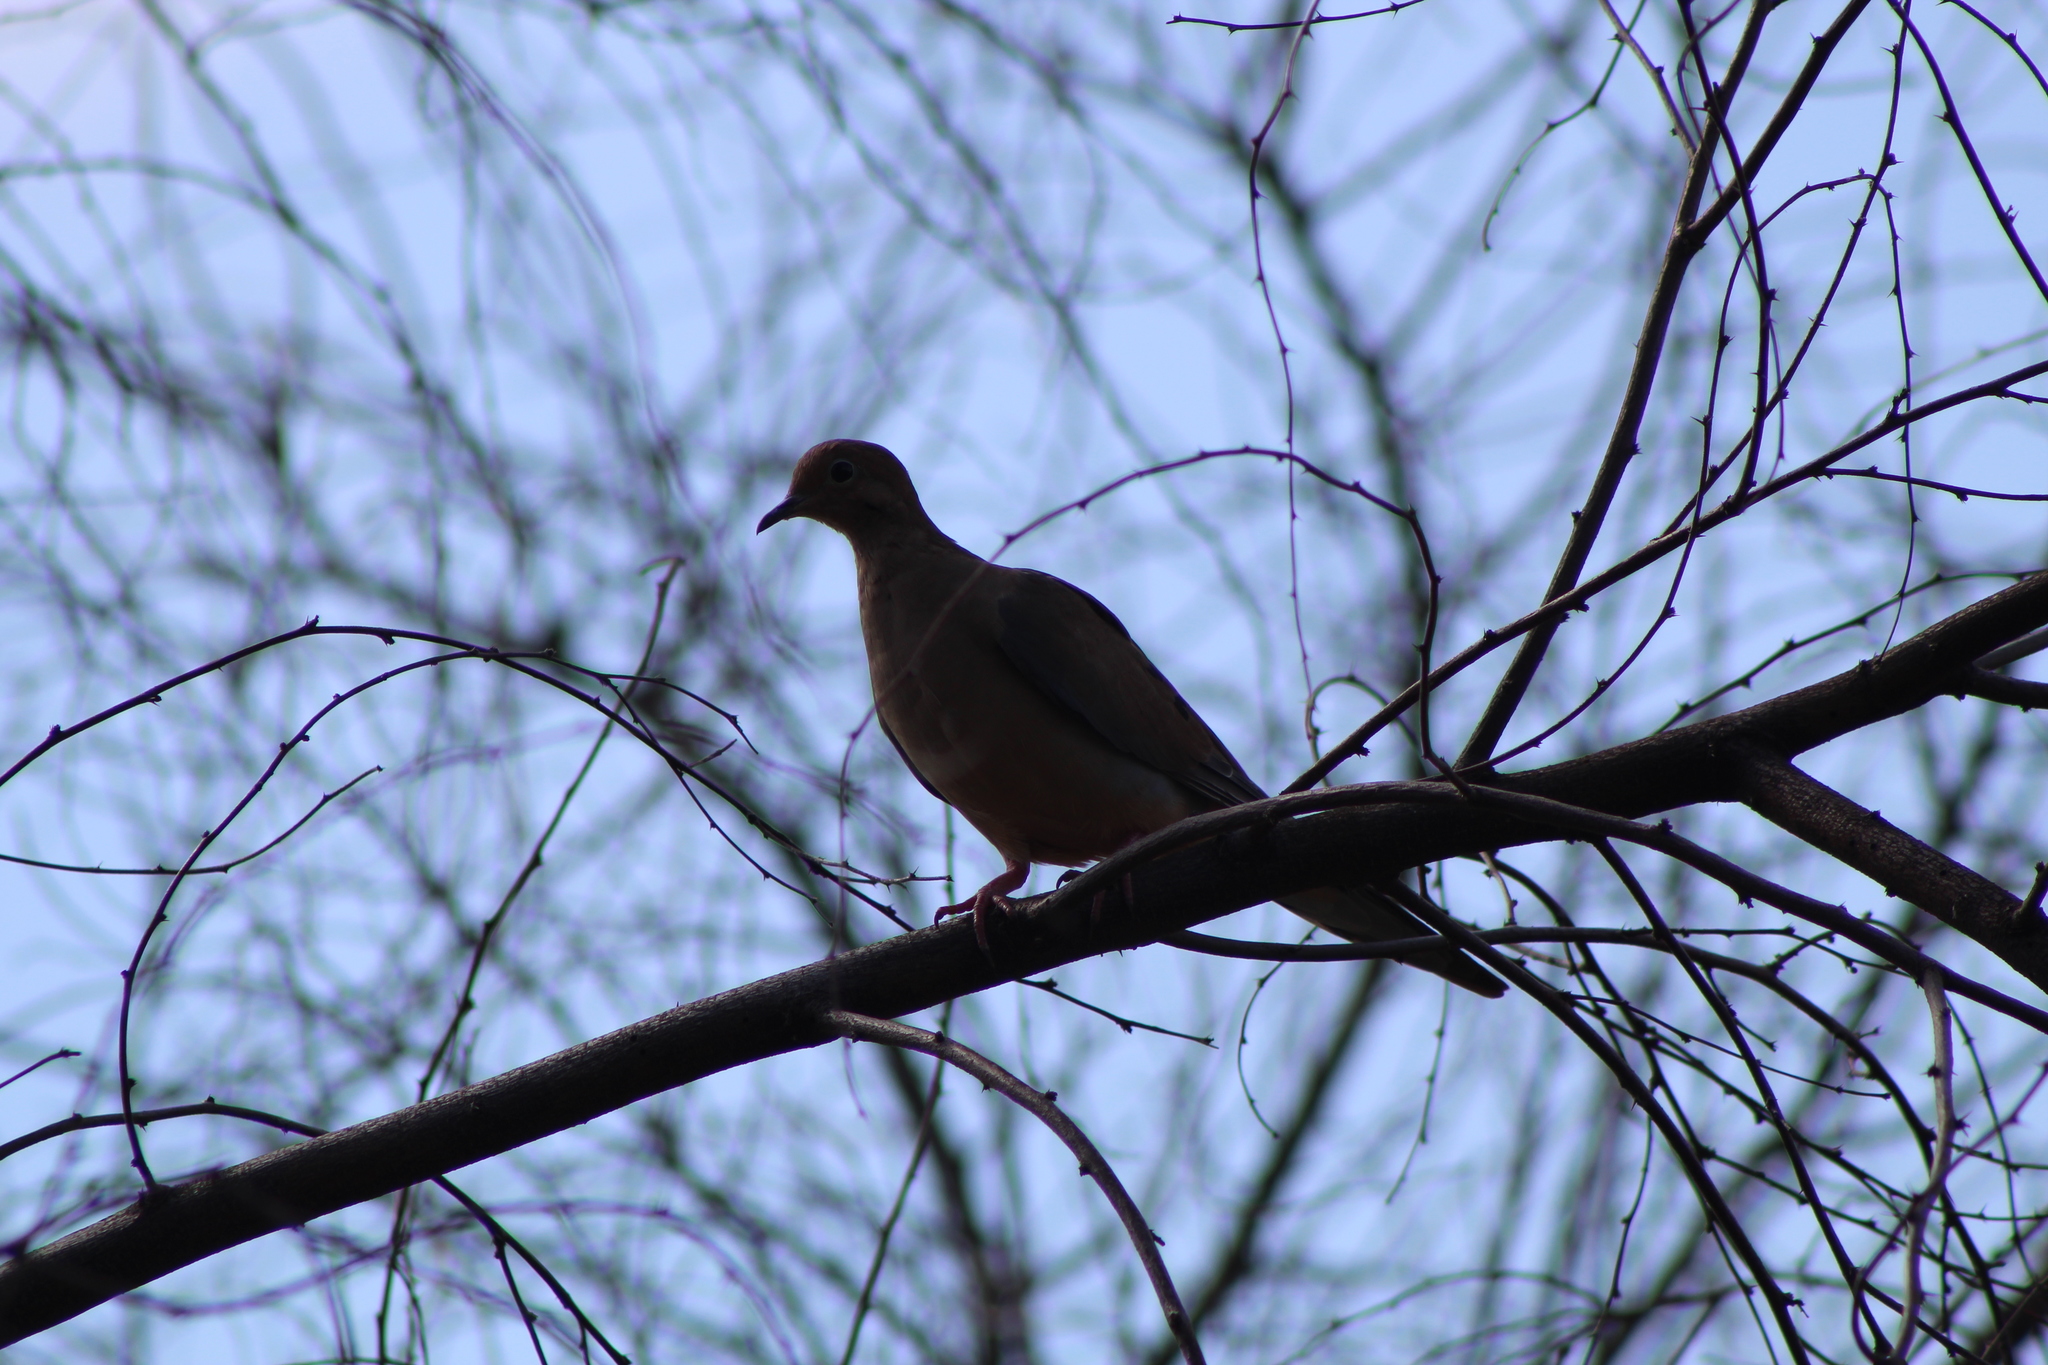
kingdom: Animalia
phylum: Chordata
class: Aves
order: Columbiformes
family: Columbidae
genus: Zenaida
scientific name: Zenaida macroura
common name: Mourning dove
